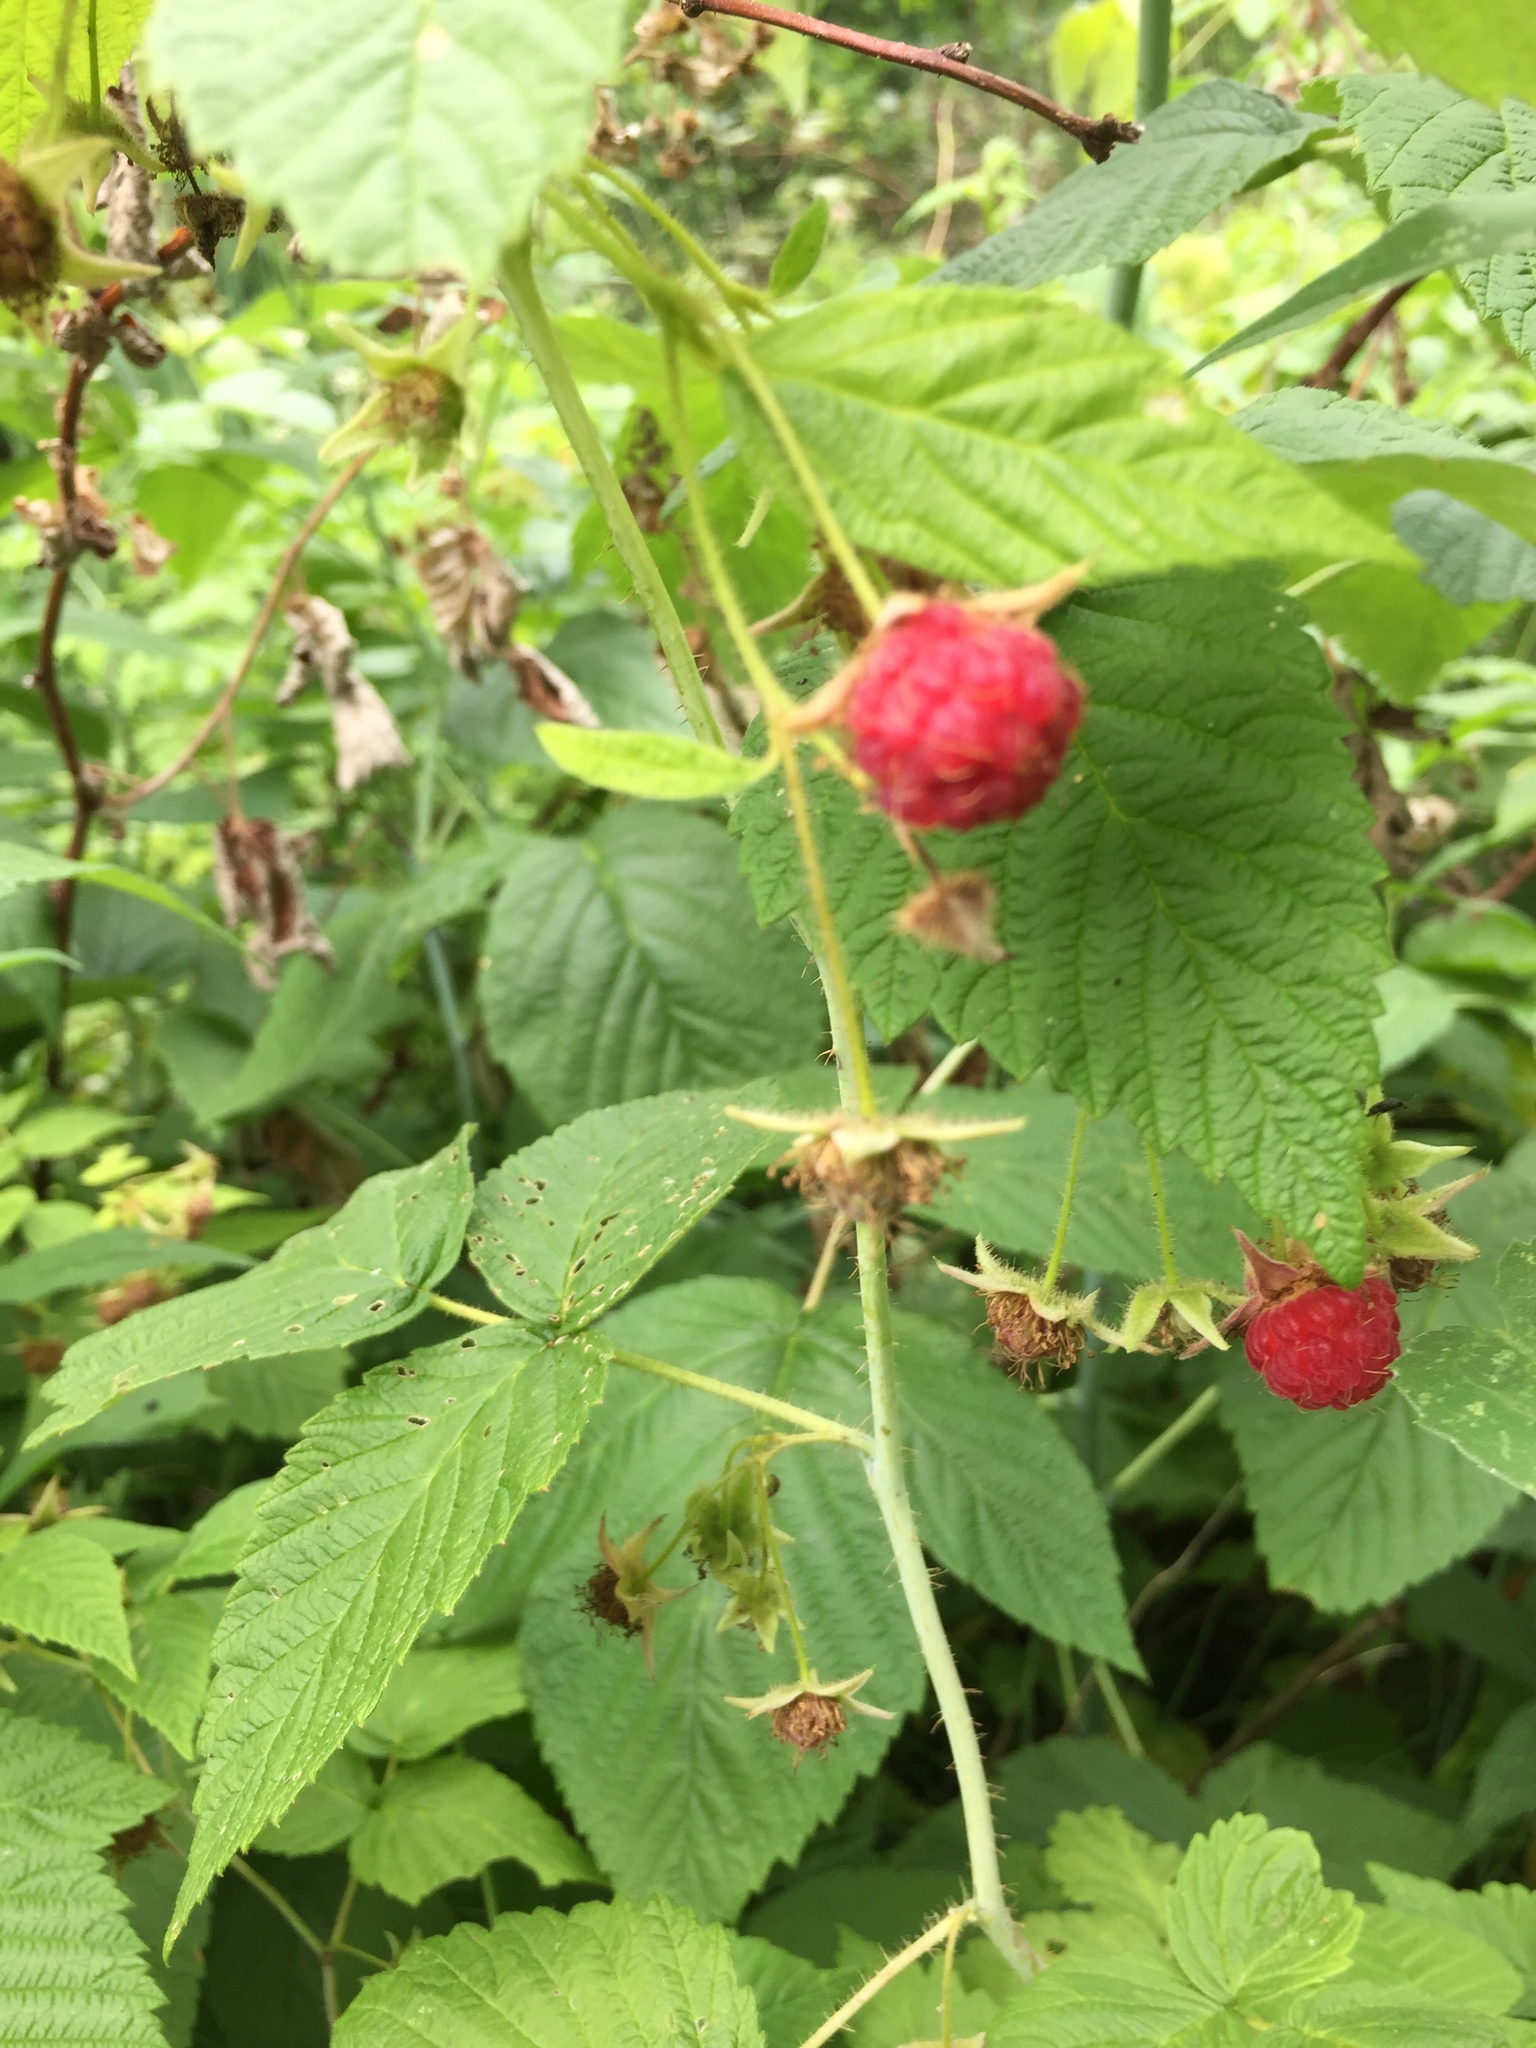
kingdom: Plantae
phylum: Tracheophyta
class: Magnoliopsida
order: Rosales
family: Rosaceae
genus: Rubus
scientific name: Rubus idaeus
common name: Raspberry
